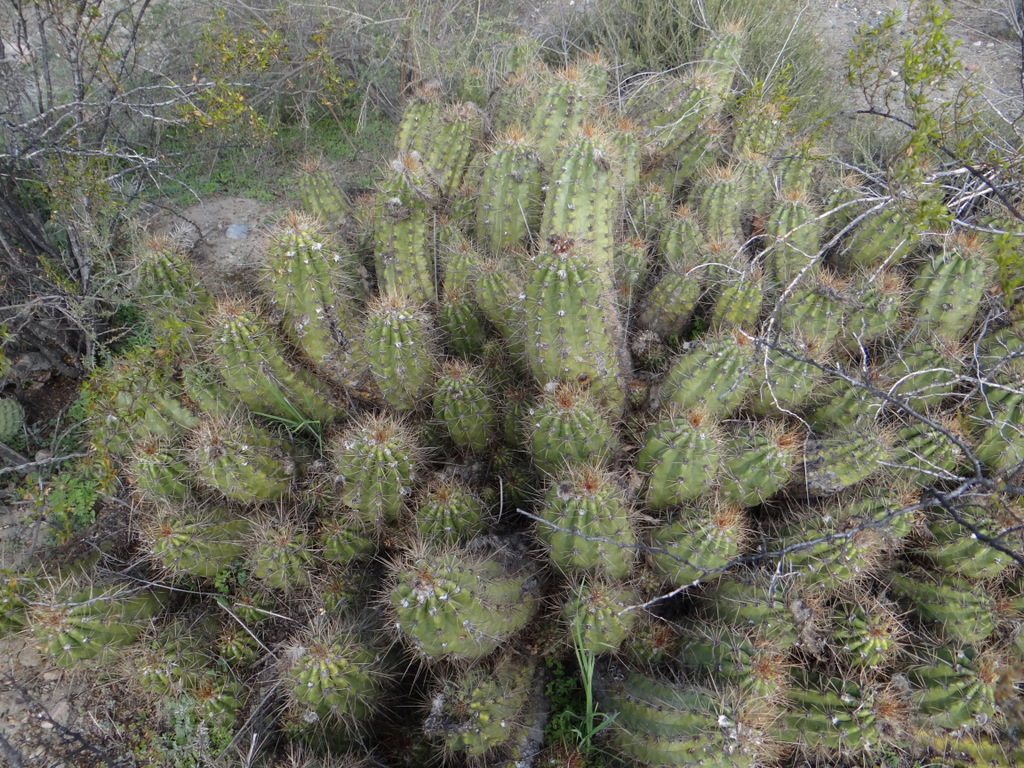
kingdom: Plantae
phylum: Tracheophyta
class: Magnoliopsida
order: Caryophyllales
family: Cactaceae
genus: Soehrensia
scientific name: Soehrensia candicans
